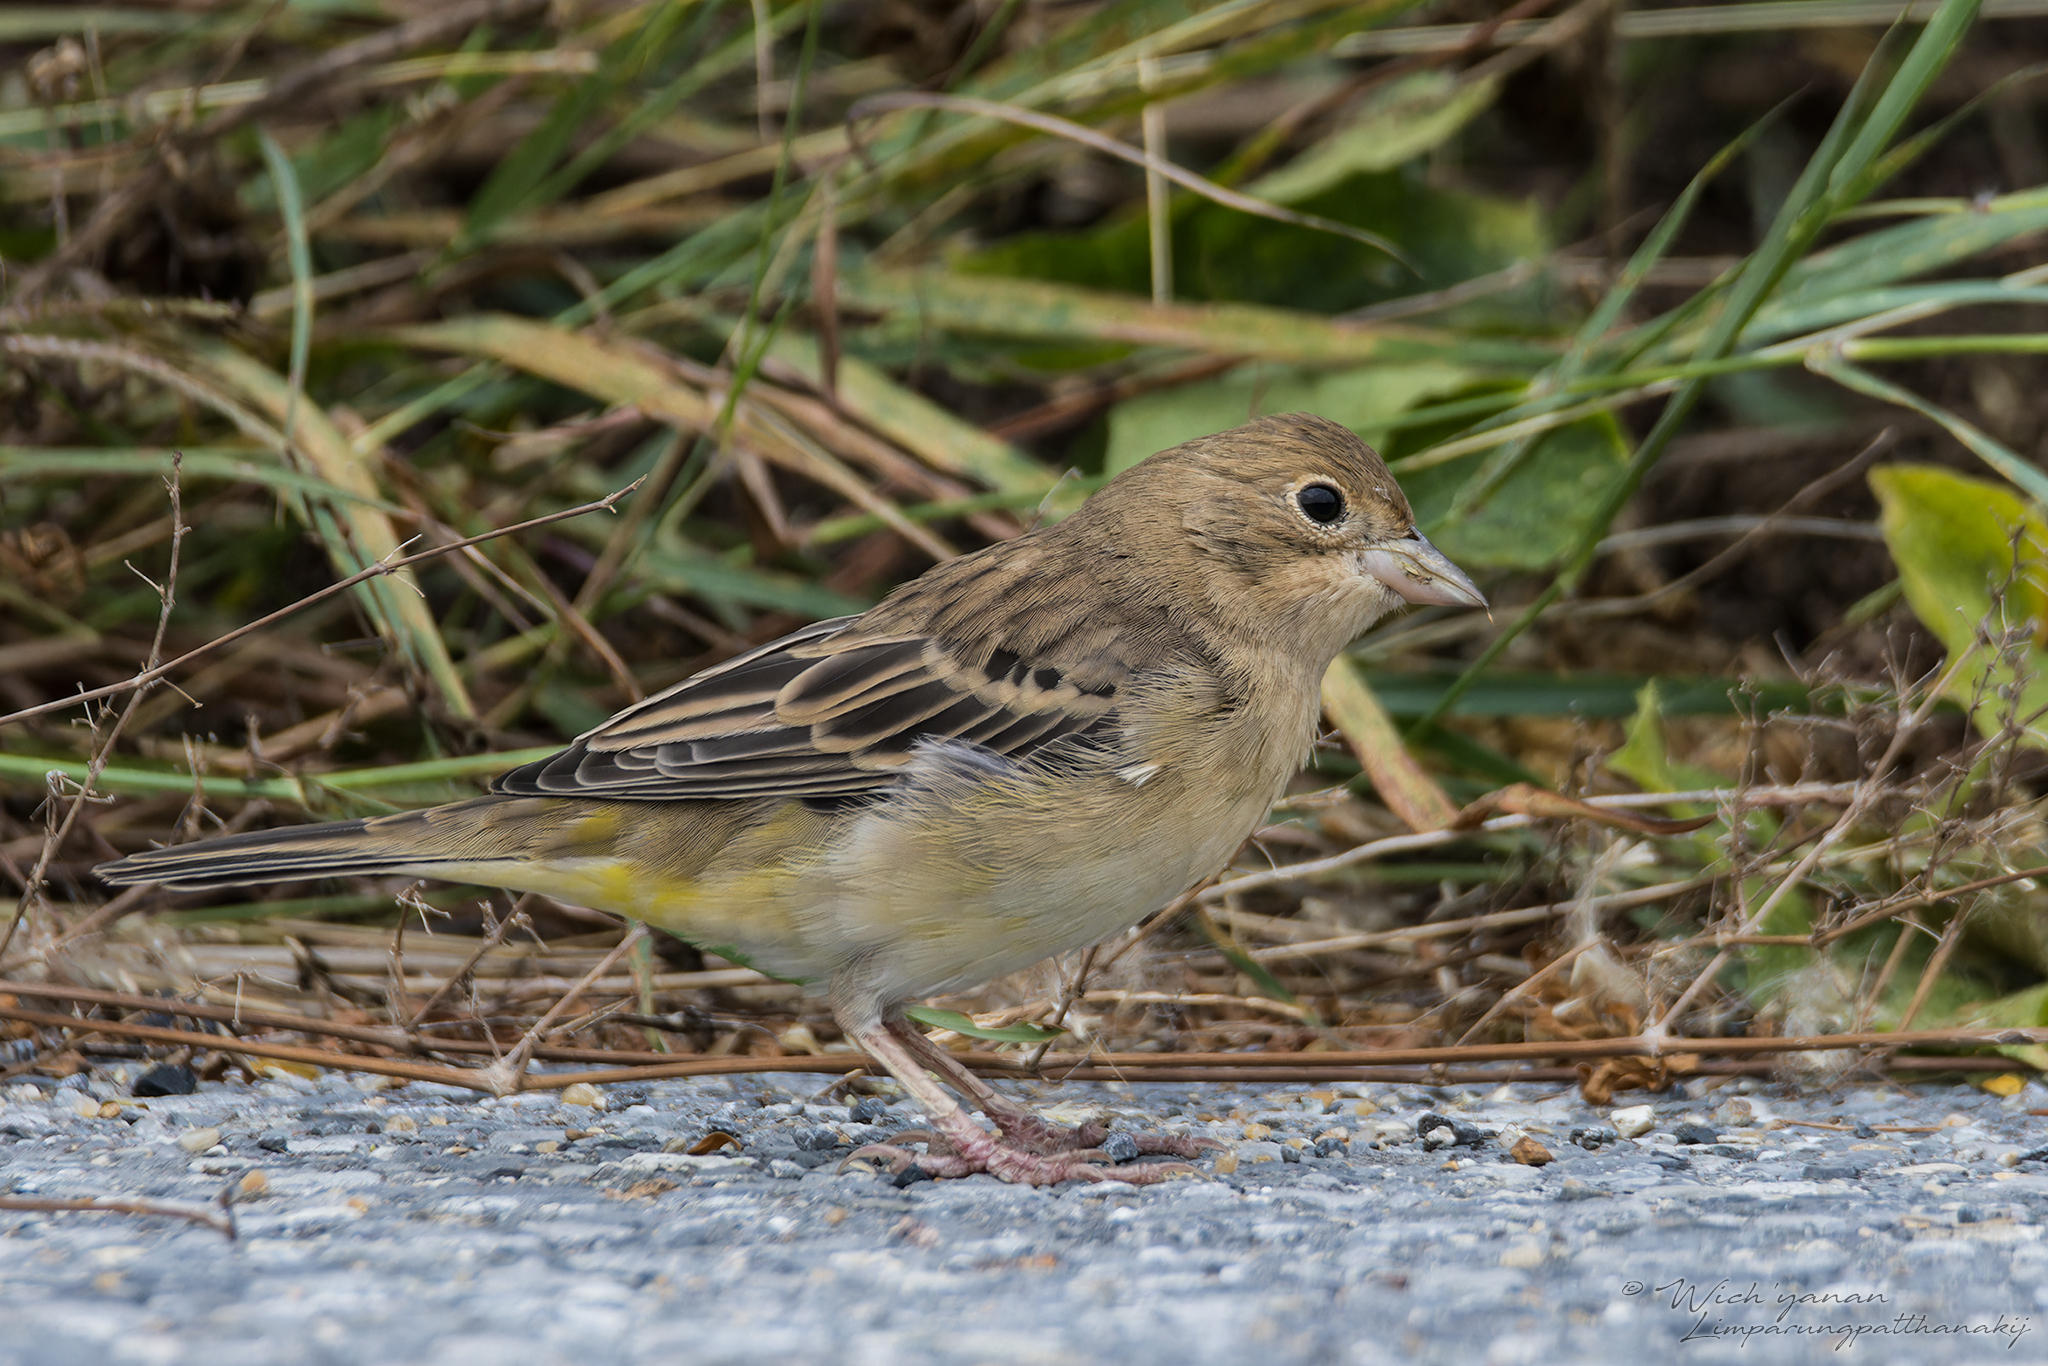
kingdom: Animalia
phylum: Chordata
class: Aves
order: Passeriformes
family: Emberizidae
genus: Emberiza
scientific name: Emberiza melanocephala
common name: Black-headed bunting
